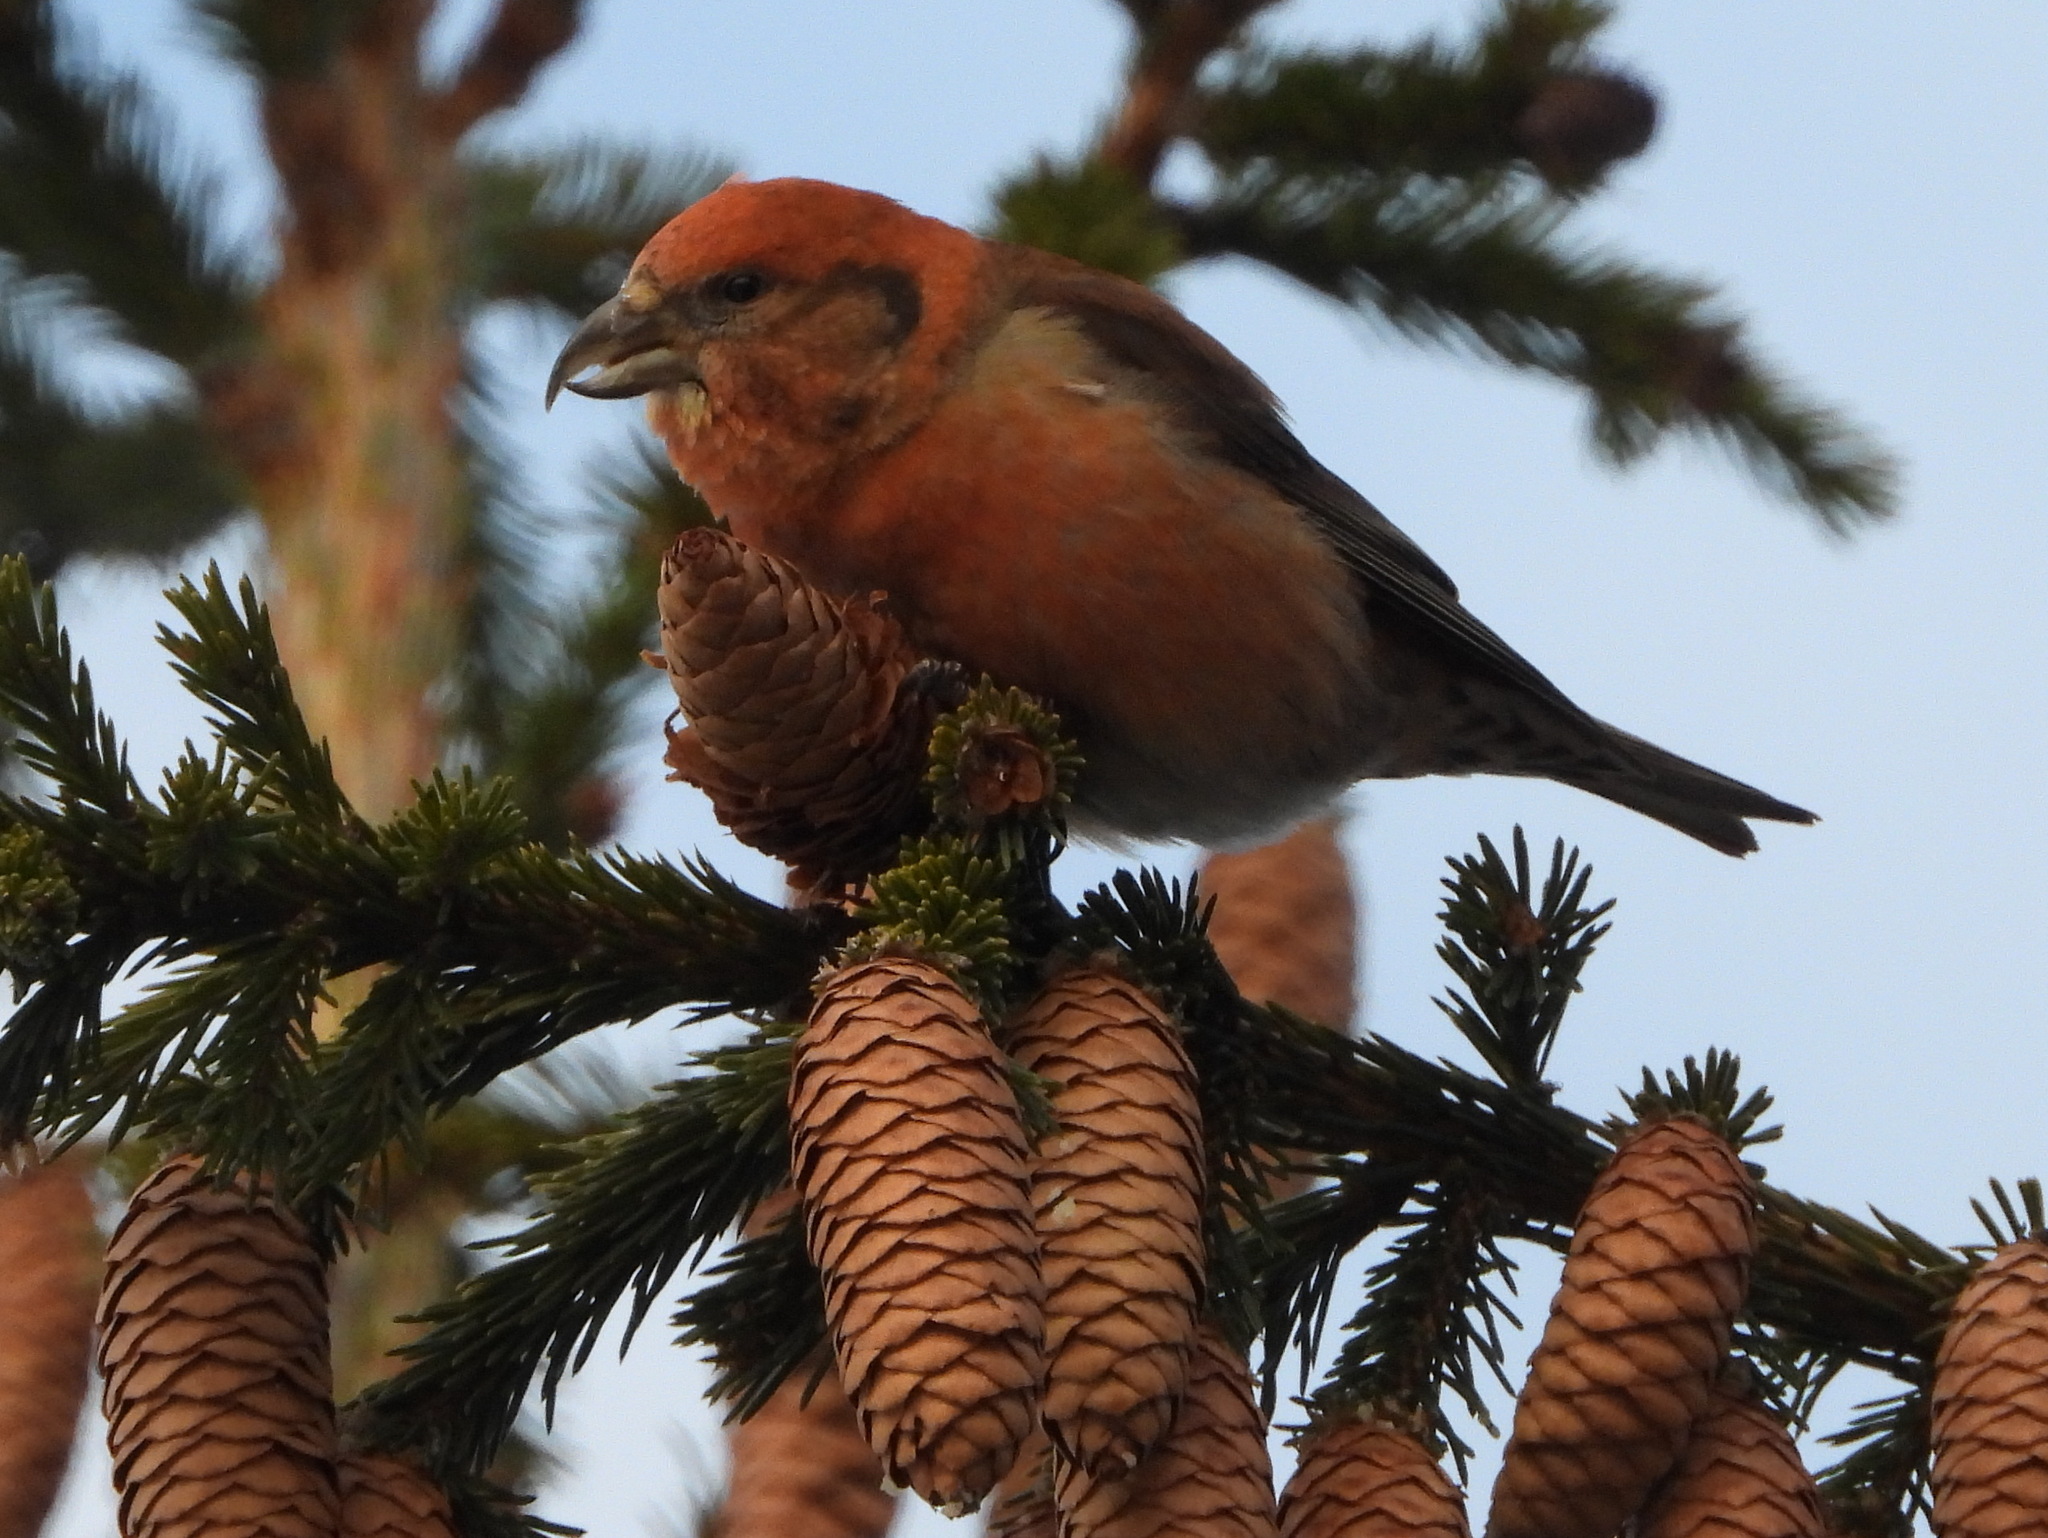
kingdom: Animalia
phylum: Chordata
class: Aves
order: Passeriformes
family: Fringillidae
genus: Loxia
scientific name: Loxia curvirostra
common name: Red crossbill
